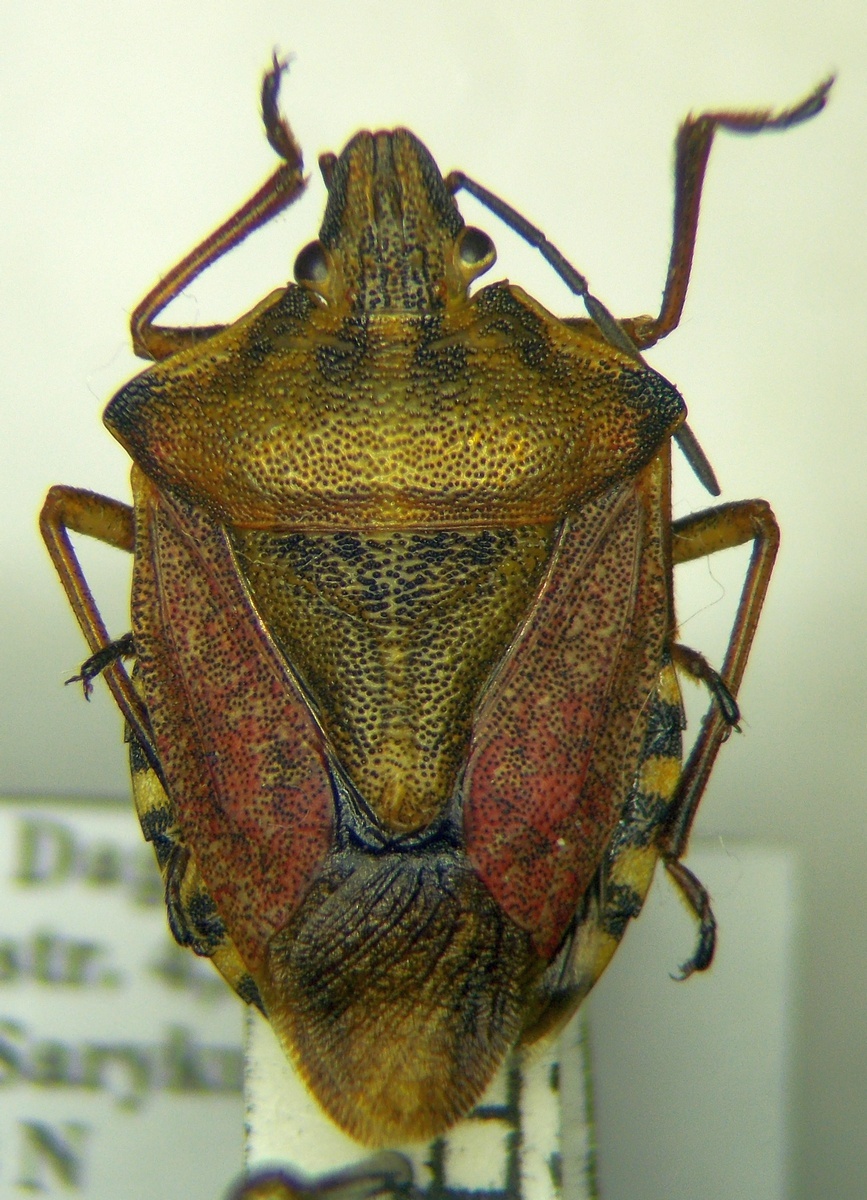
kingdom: Animalia
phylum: Arthropoda
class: Insecta
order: Hemiptera
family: Pentatomidae
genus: Carpocoris
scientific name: Carpocoris purpureipennis
